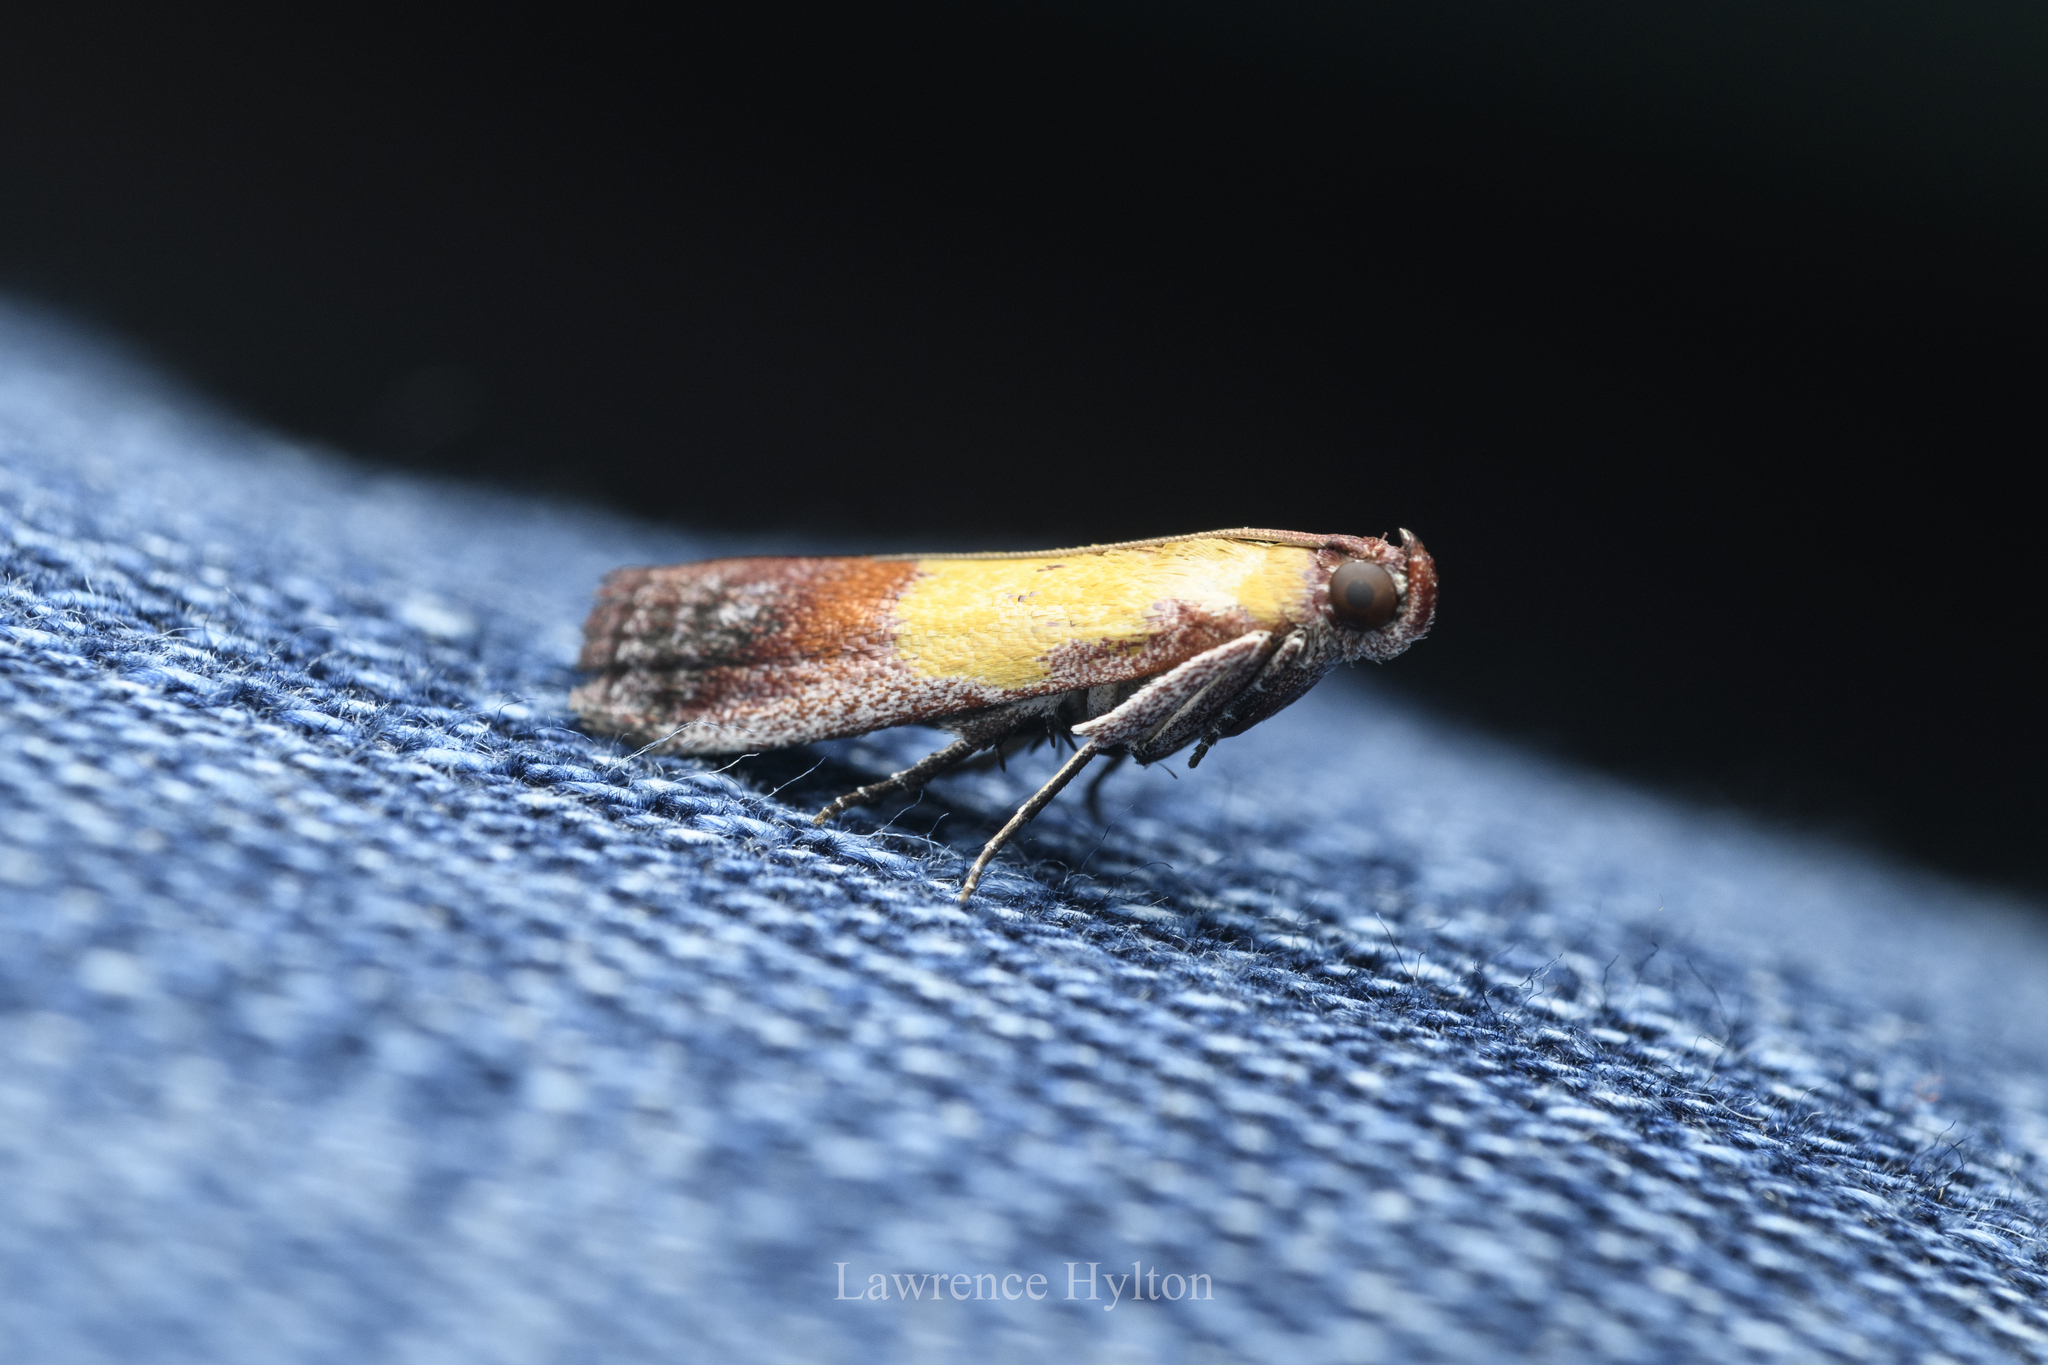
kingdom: Animalia
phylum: Arthropoda
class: Insecta
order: Lepidoptera
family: Pyralidae
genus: Piesmopoda
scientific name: Piesmopoda
